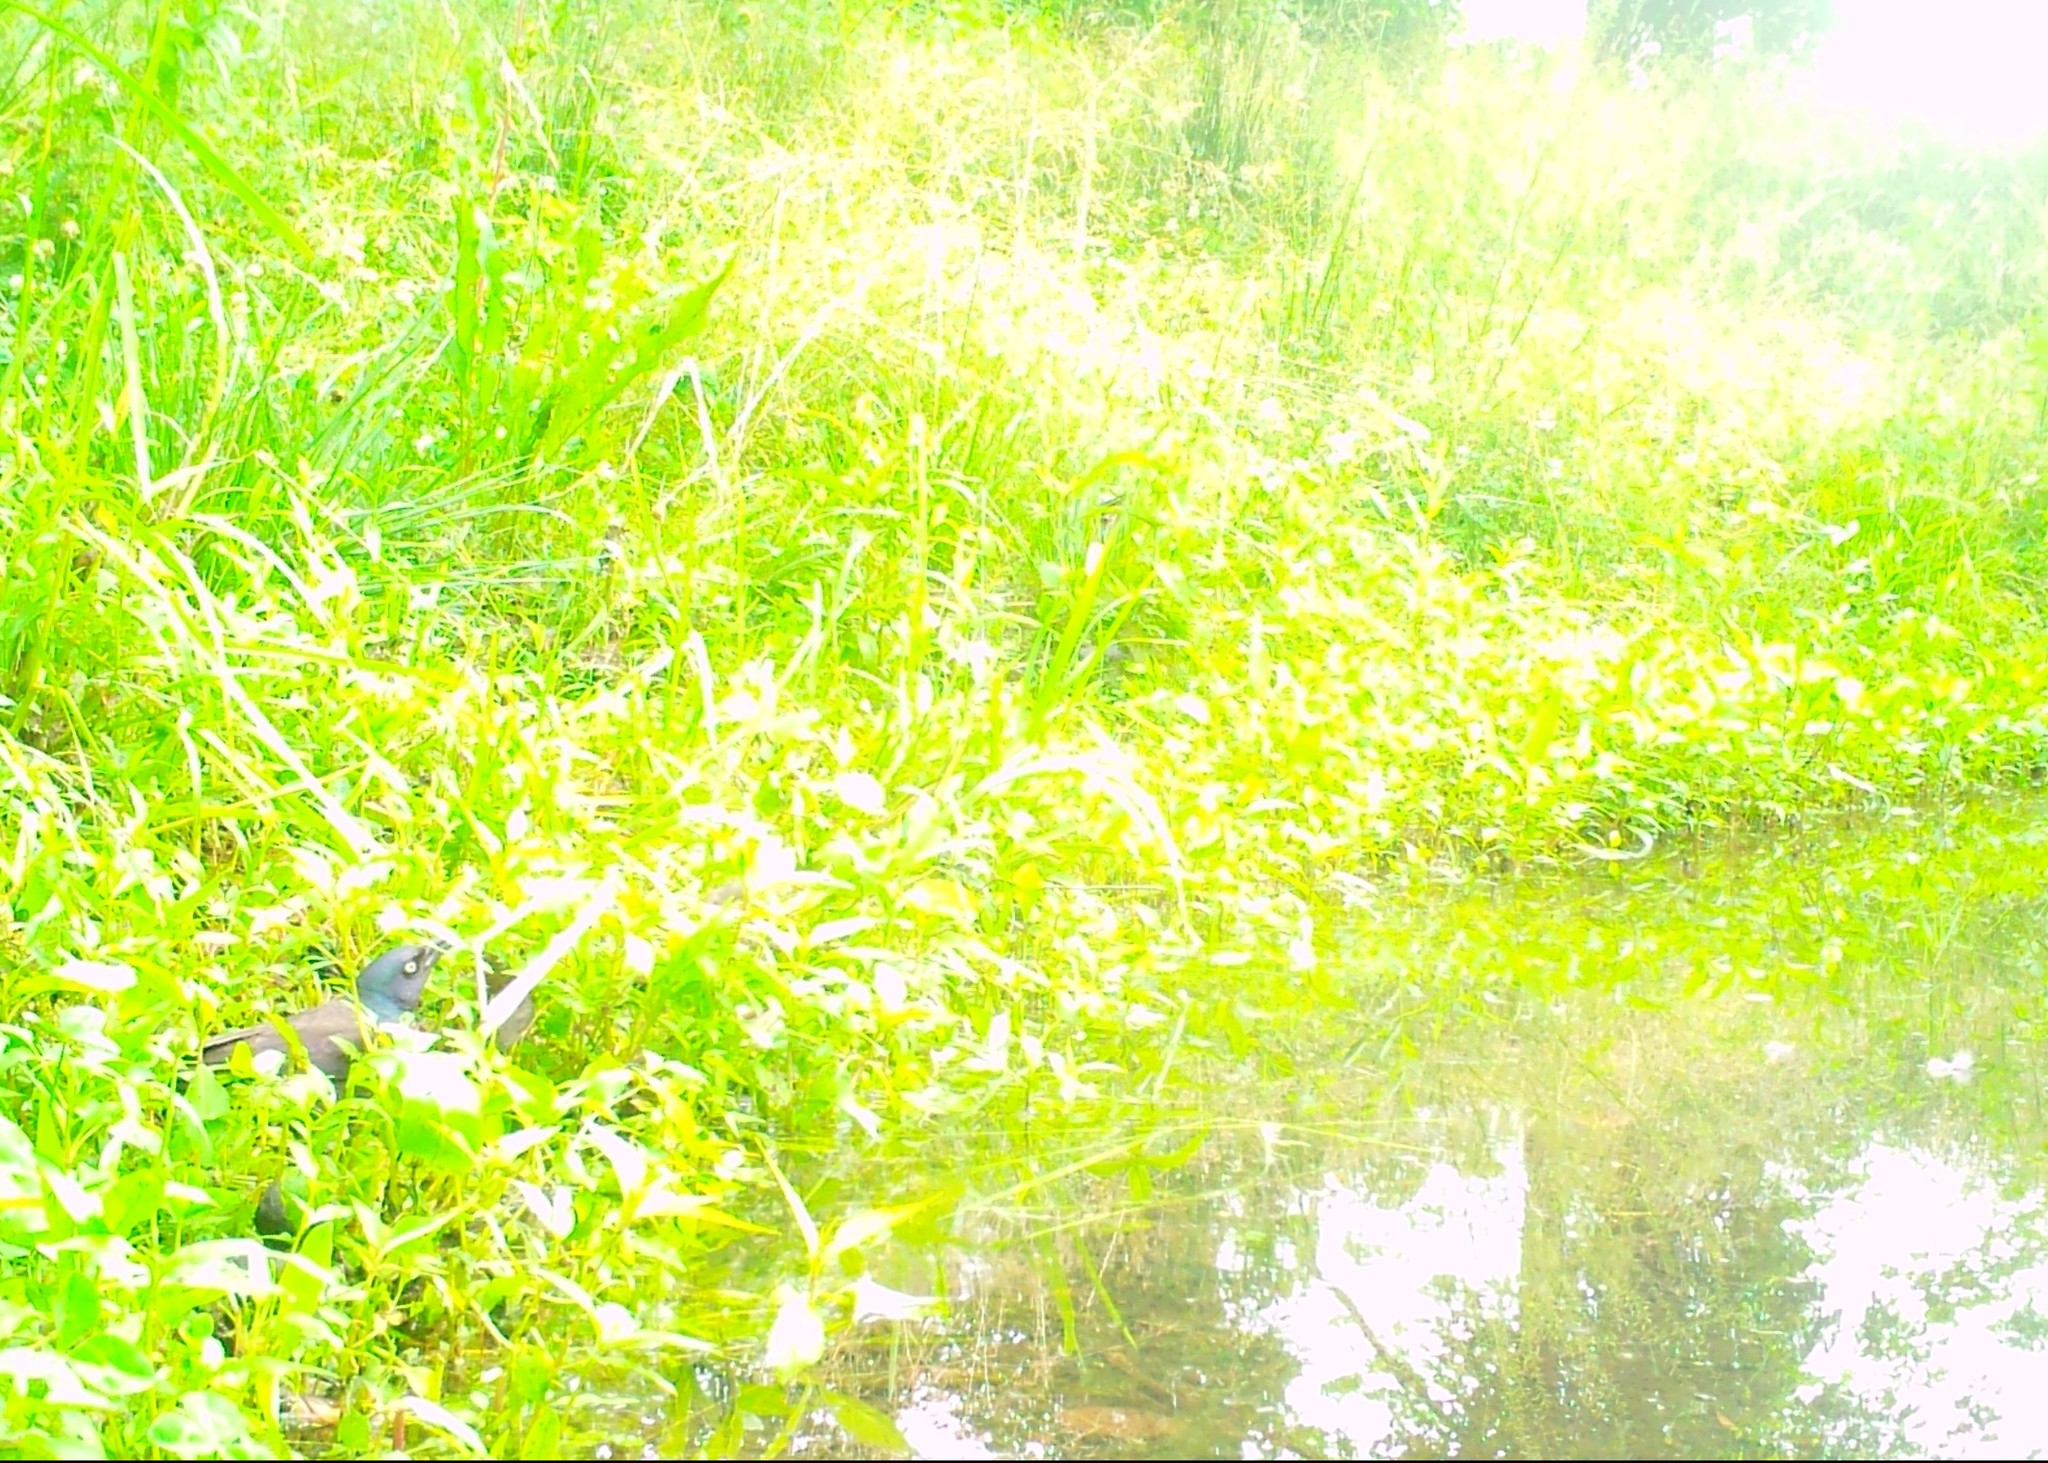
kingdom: Animalia
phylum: Chordata
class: Aves
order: Passeriformes
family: Icteridae
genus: Quiscalus
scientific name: Quiscalus quiscula
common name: Common grackle
